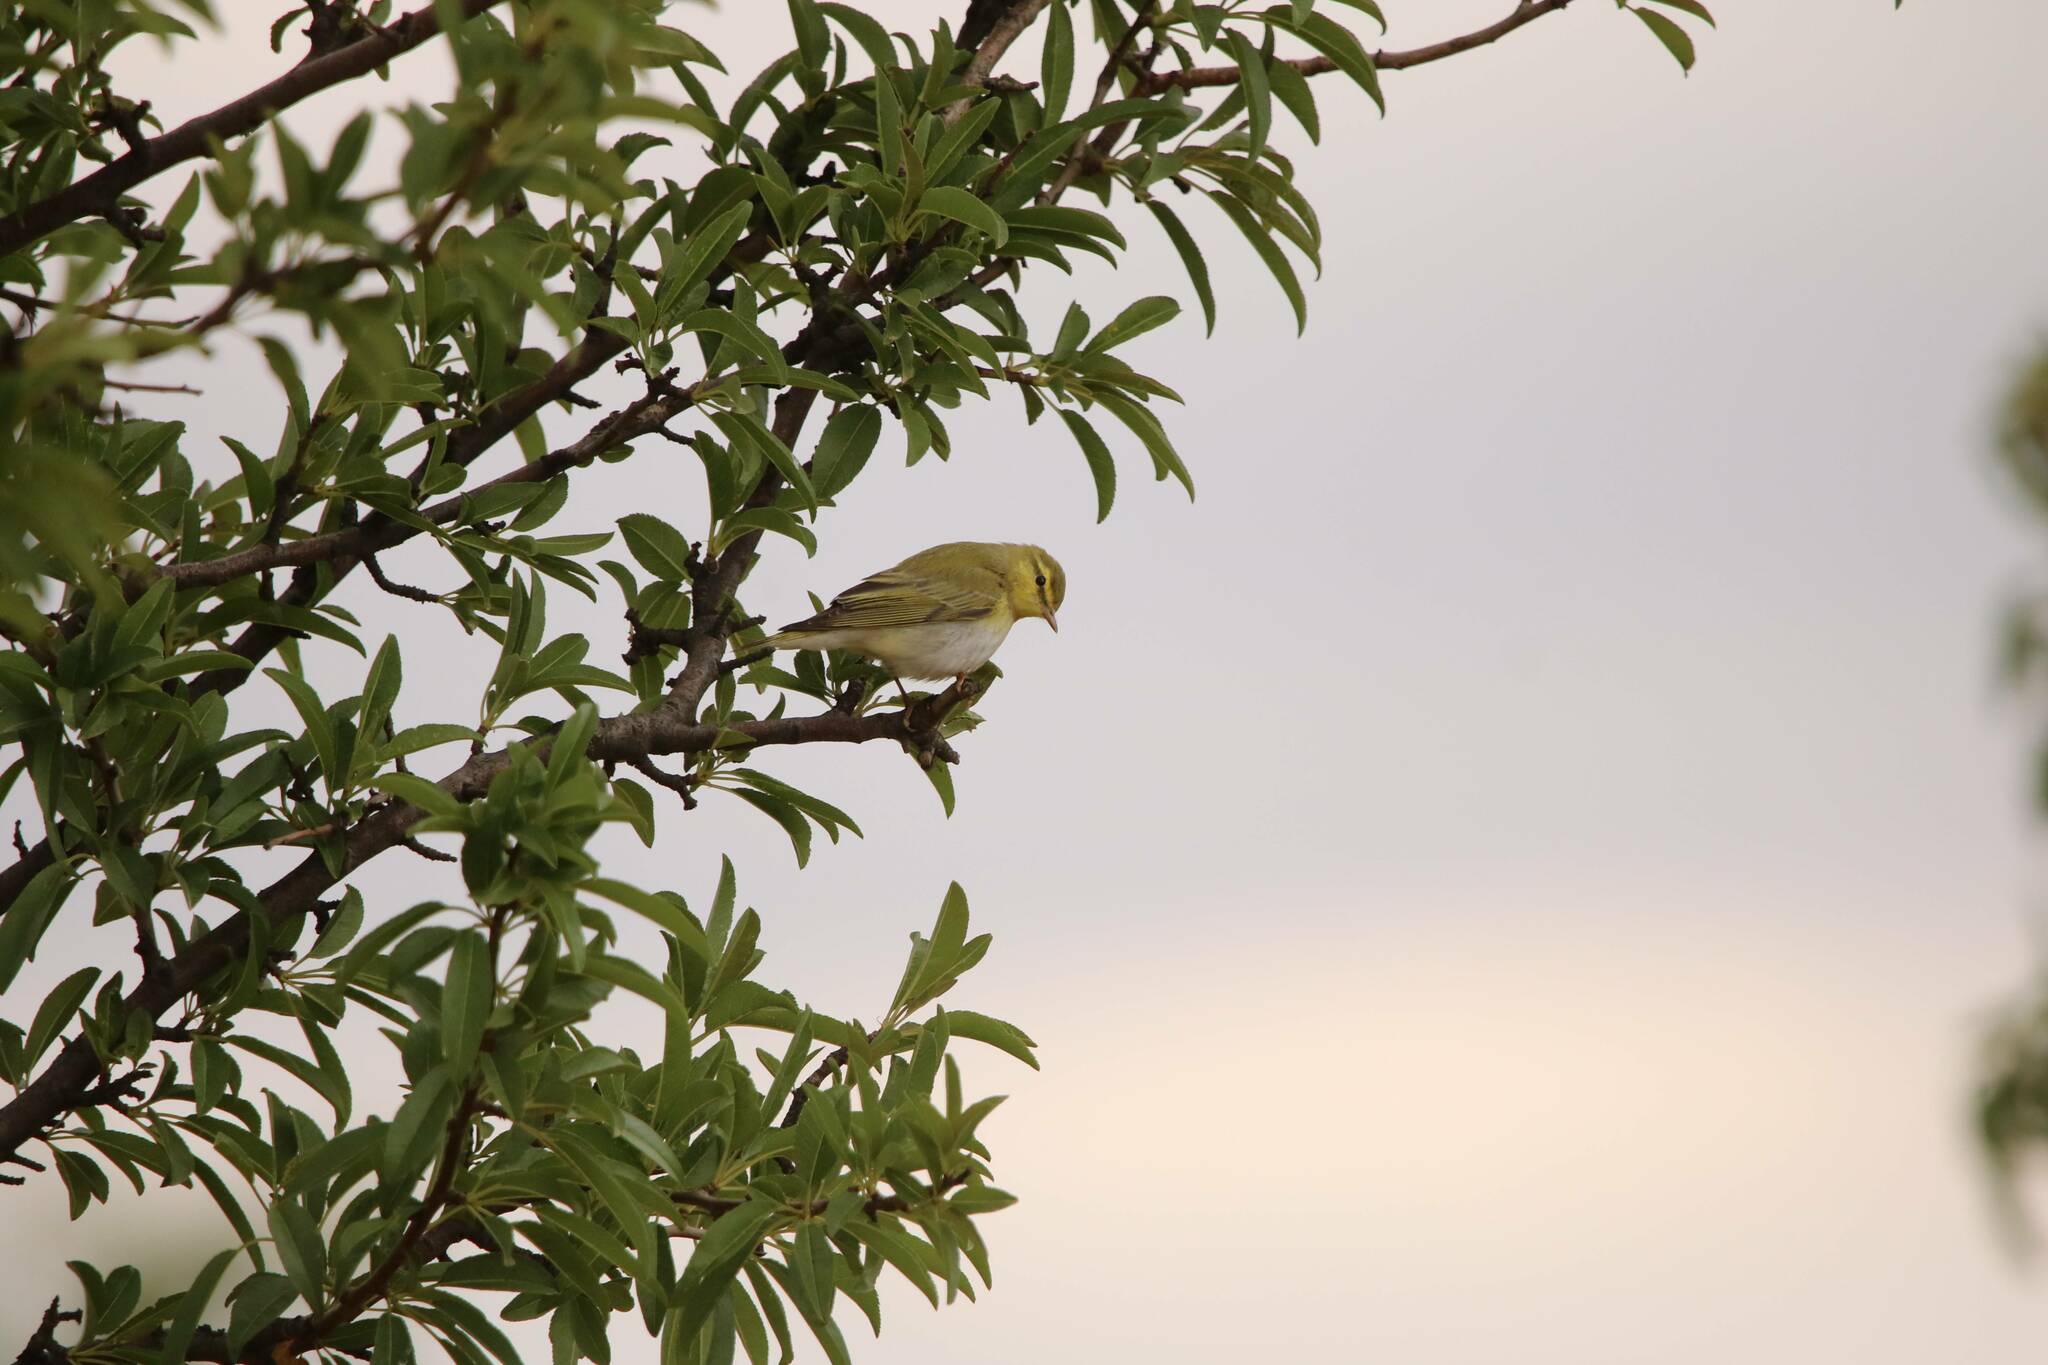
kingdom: Animalia
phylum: Chordata
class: Aves
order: Passeriformes
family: Phylloscopidae
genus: Phylloscopus
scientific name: Phylloscopus sibillatrix
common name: Wood warbler
